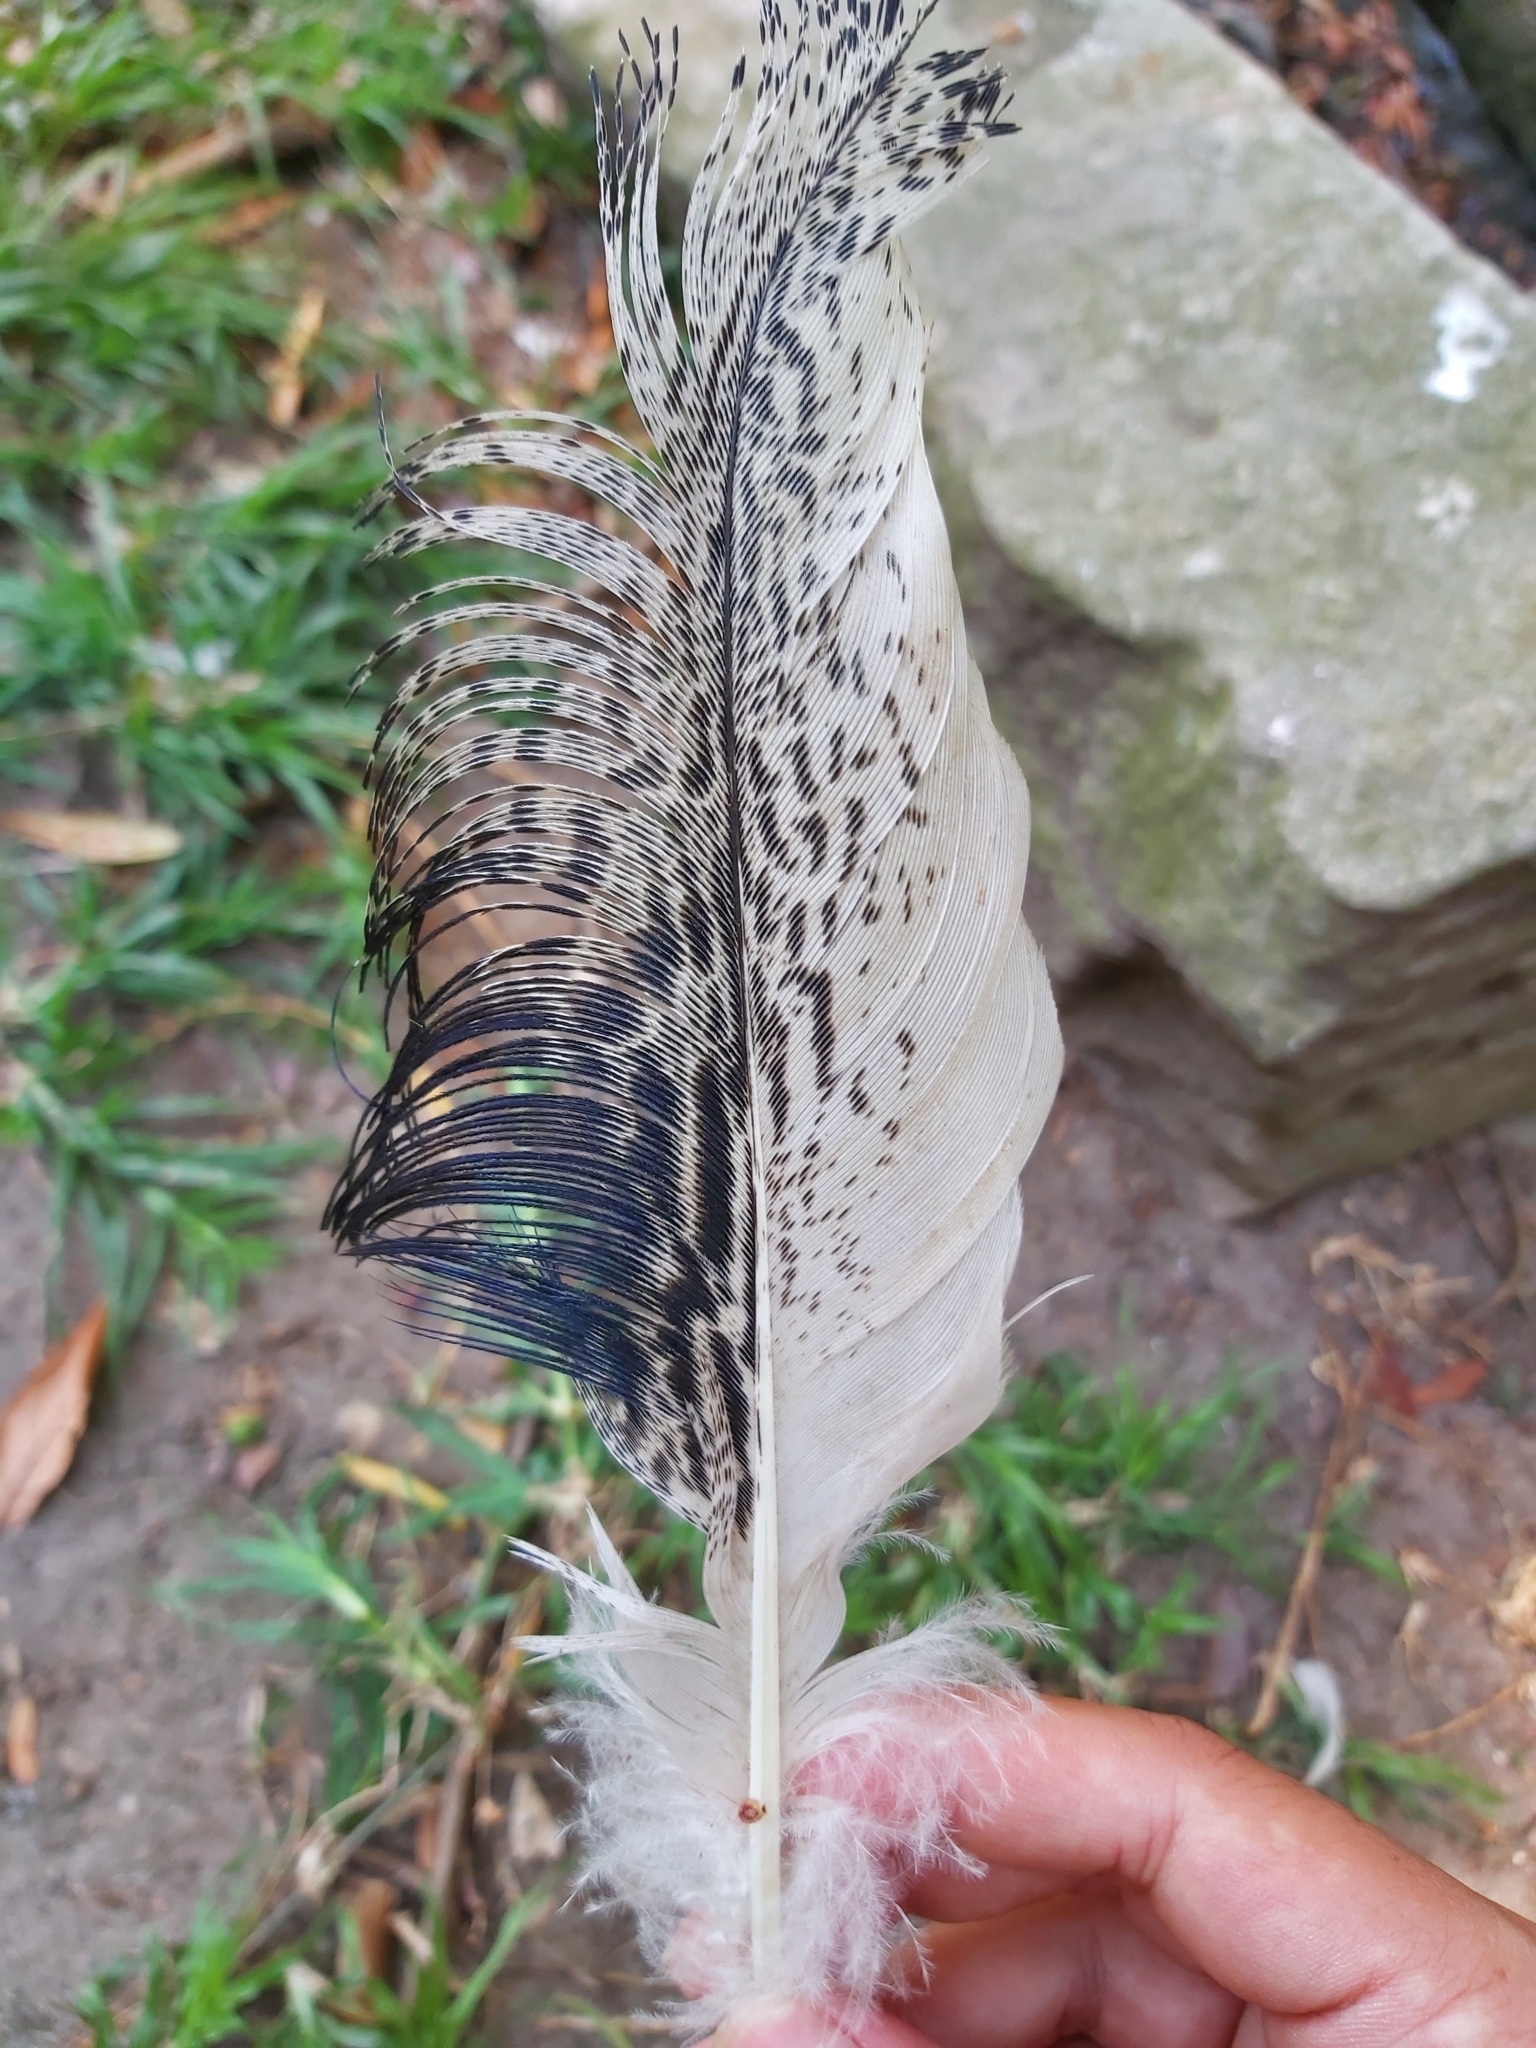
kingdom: Animalia
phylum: Chordata
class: Aves
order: Pelecaniformes
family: Threskiornithidae
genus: Threskiornis
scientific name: Threskiornis molucca
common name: Australian white ibis
